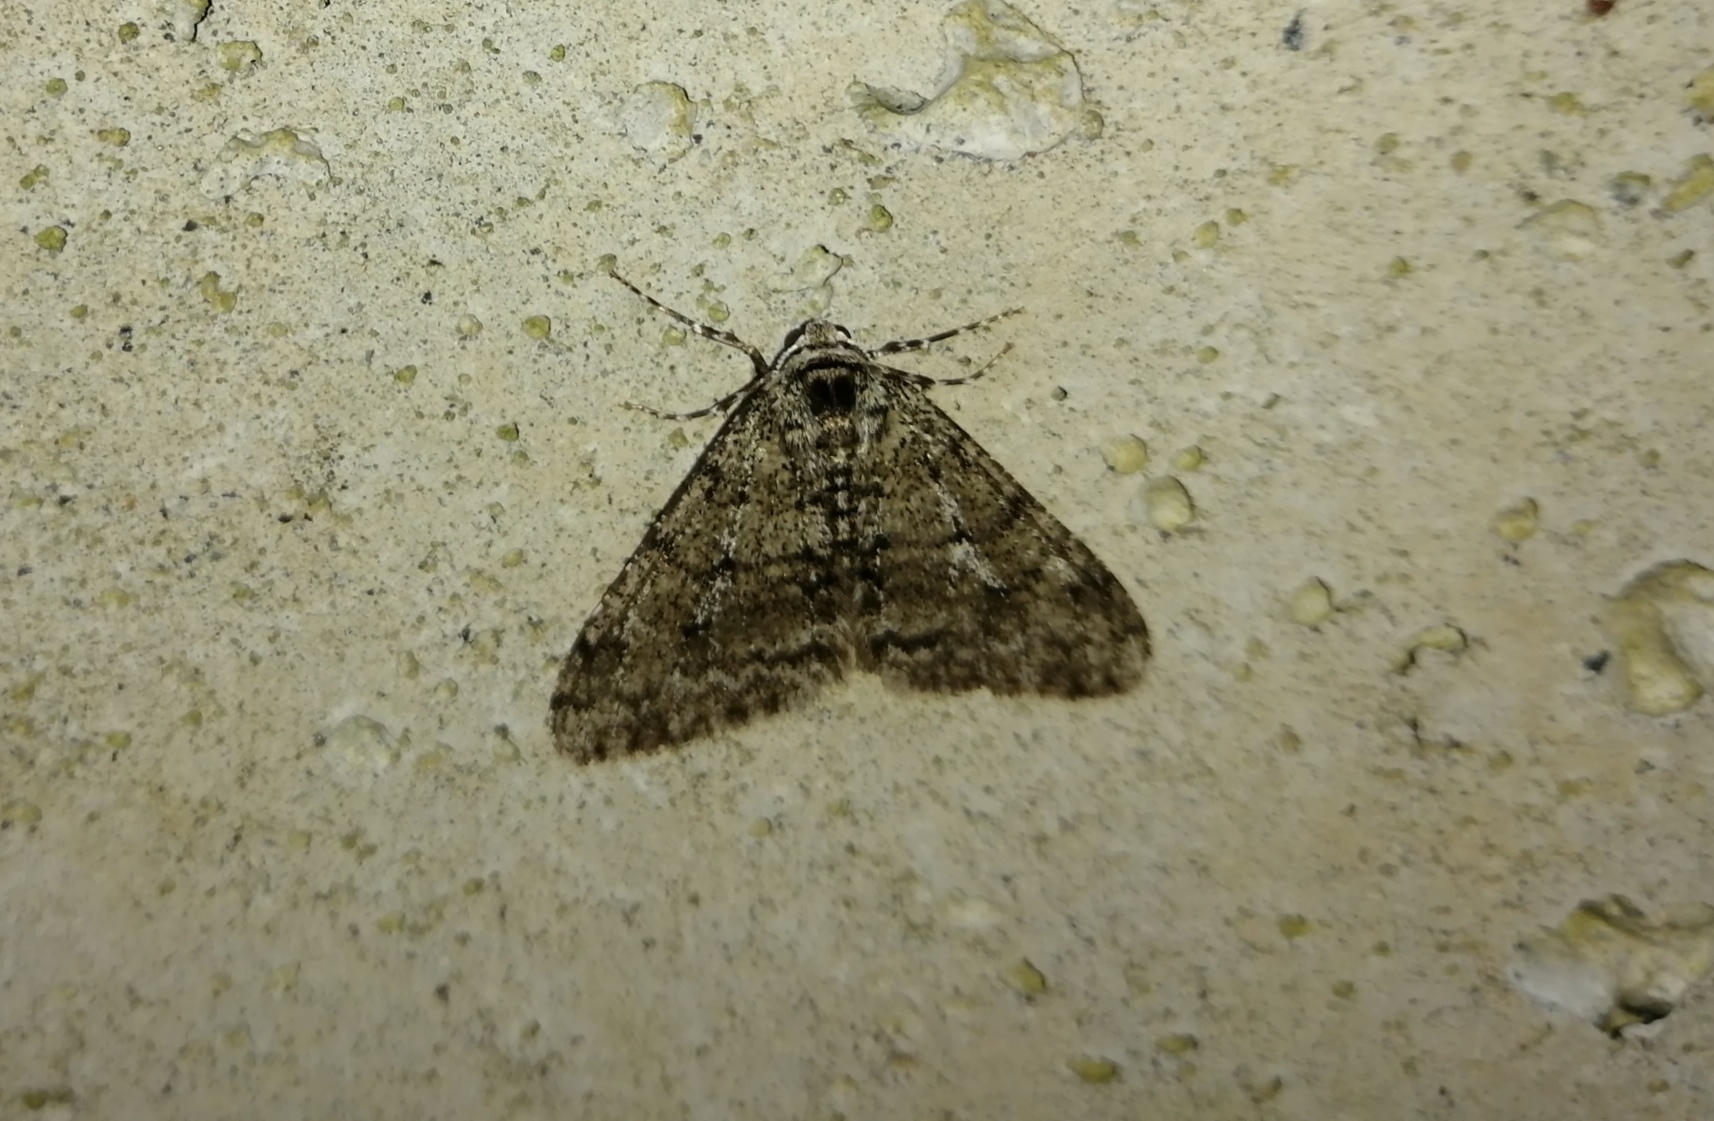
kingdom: Animalia
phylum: Arthropoda
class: Insecta
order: Lepidoptera
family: Geometridae
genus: Phigalia
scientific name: Phigalia strigataria
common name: Small phigalia
